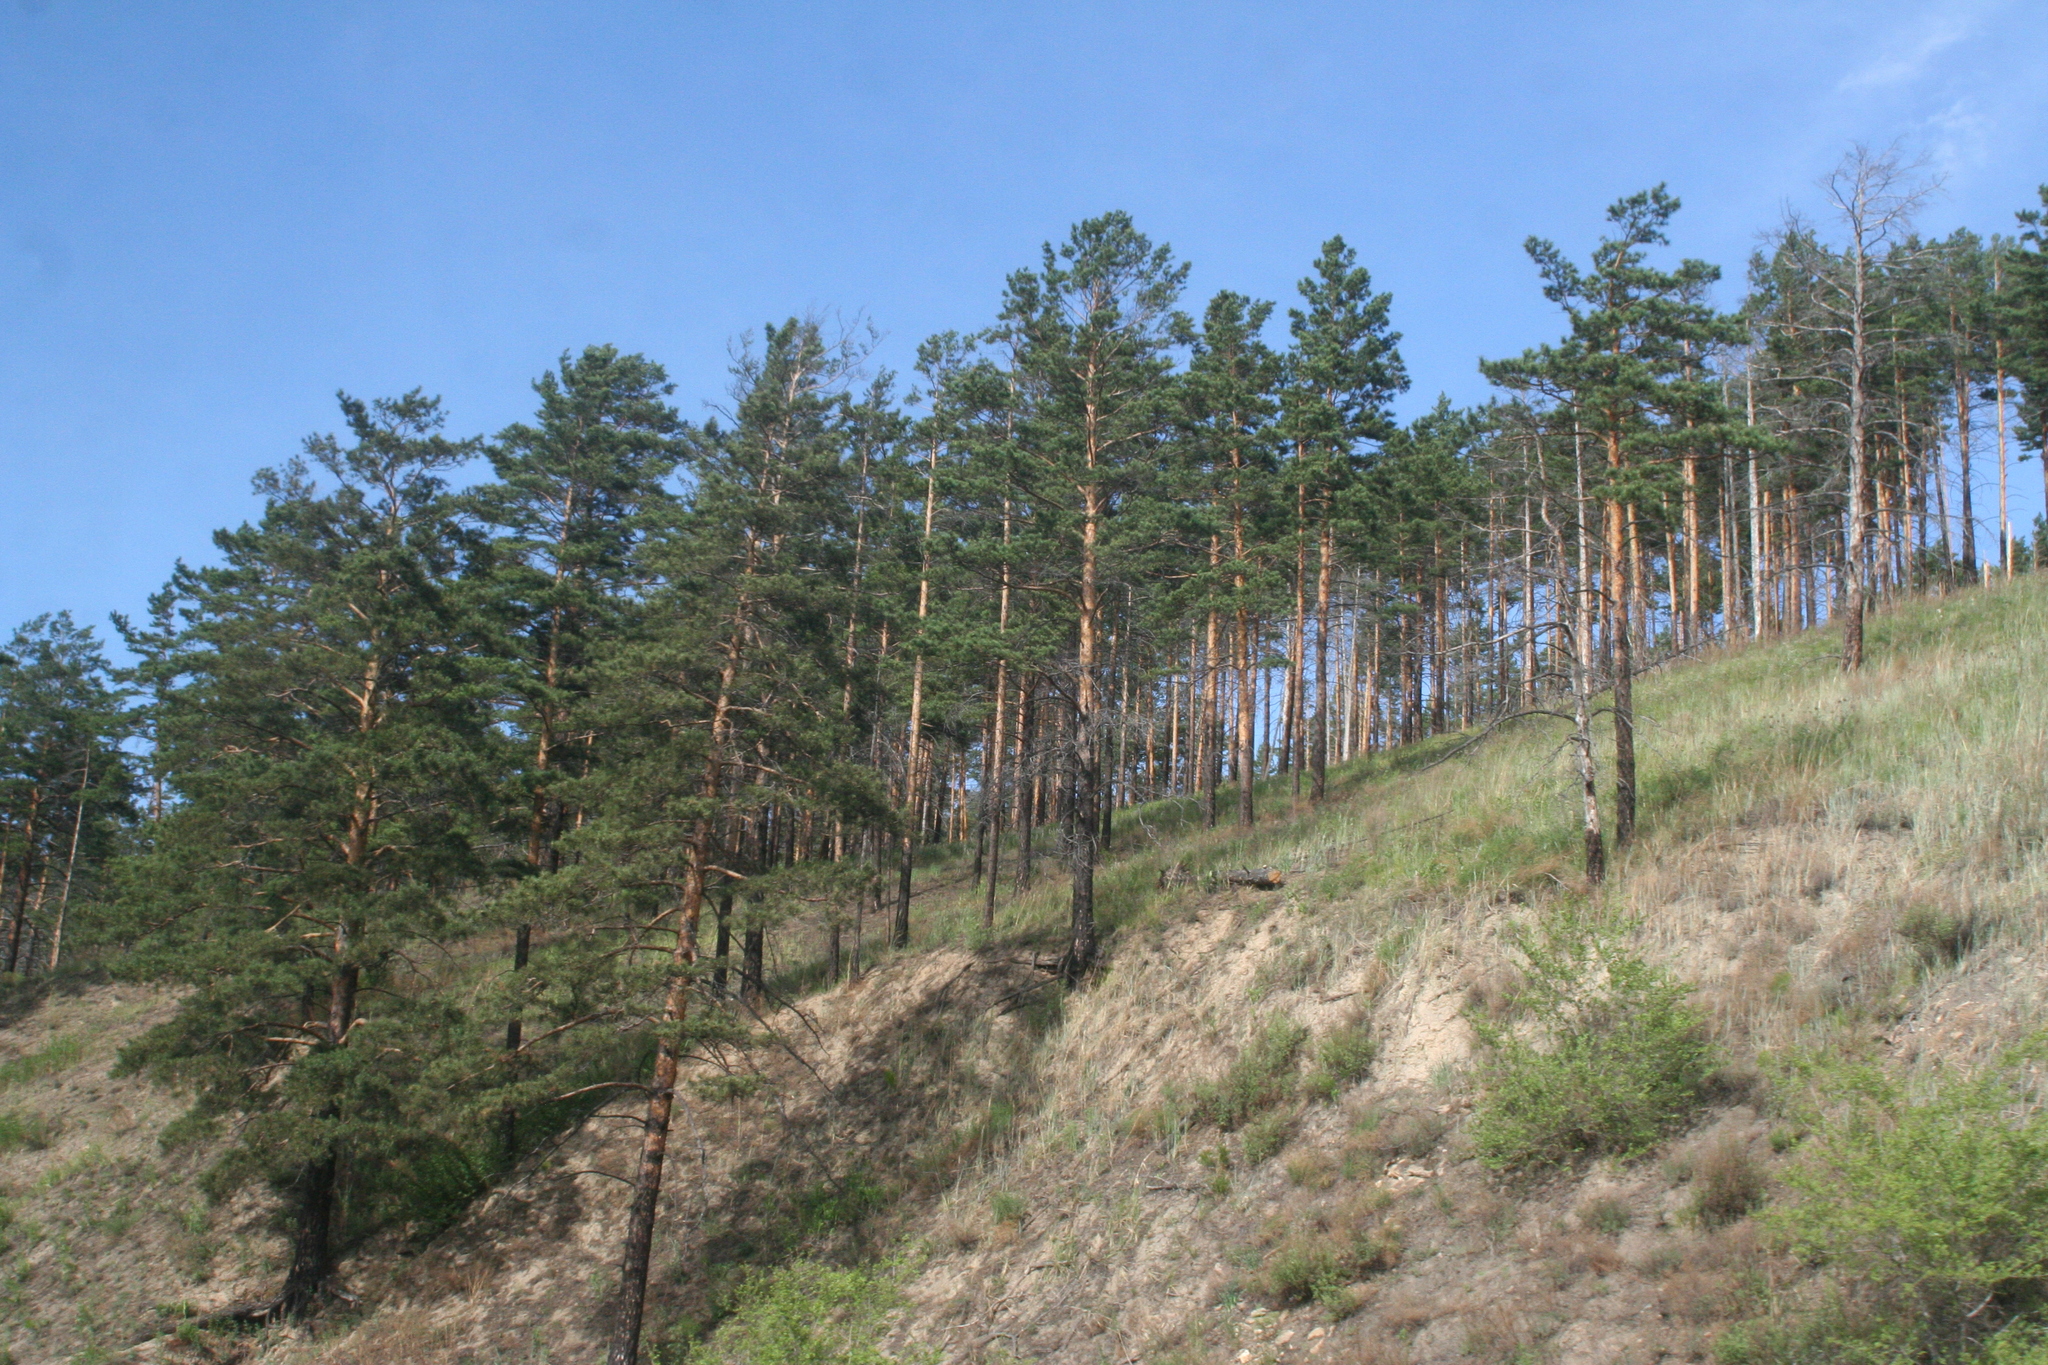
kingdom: Plantae
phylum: Tracheophyta
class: Pinopsida
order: Pinales
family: Pinaceae
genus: Pinus
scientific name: Pinus sylvestris
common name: Scots pine
